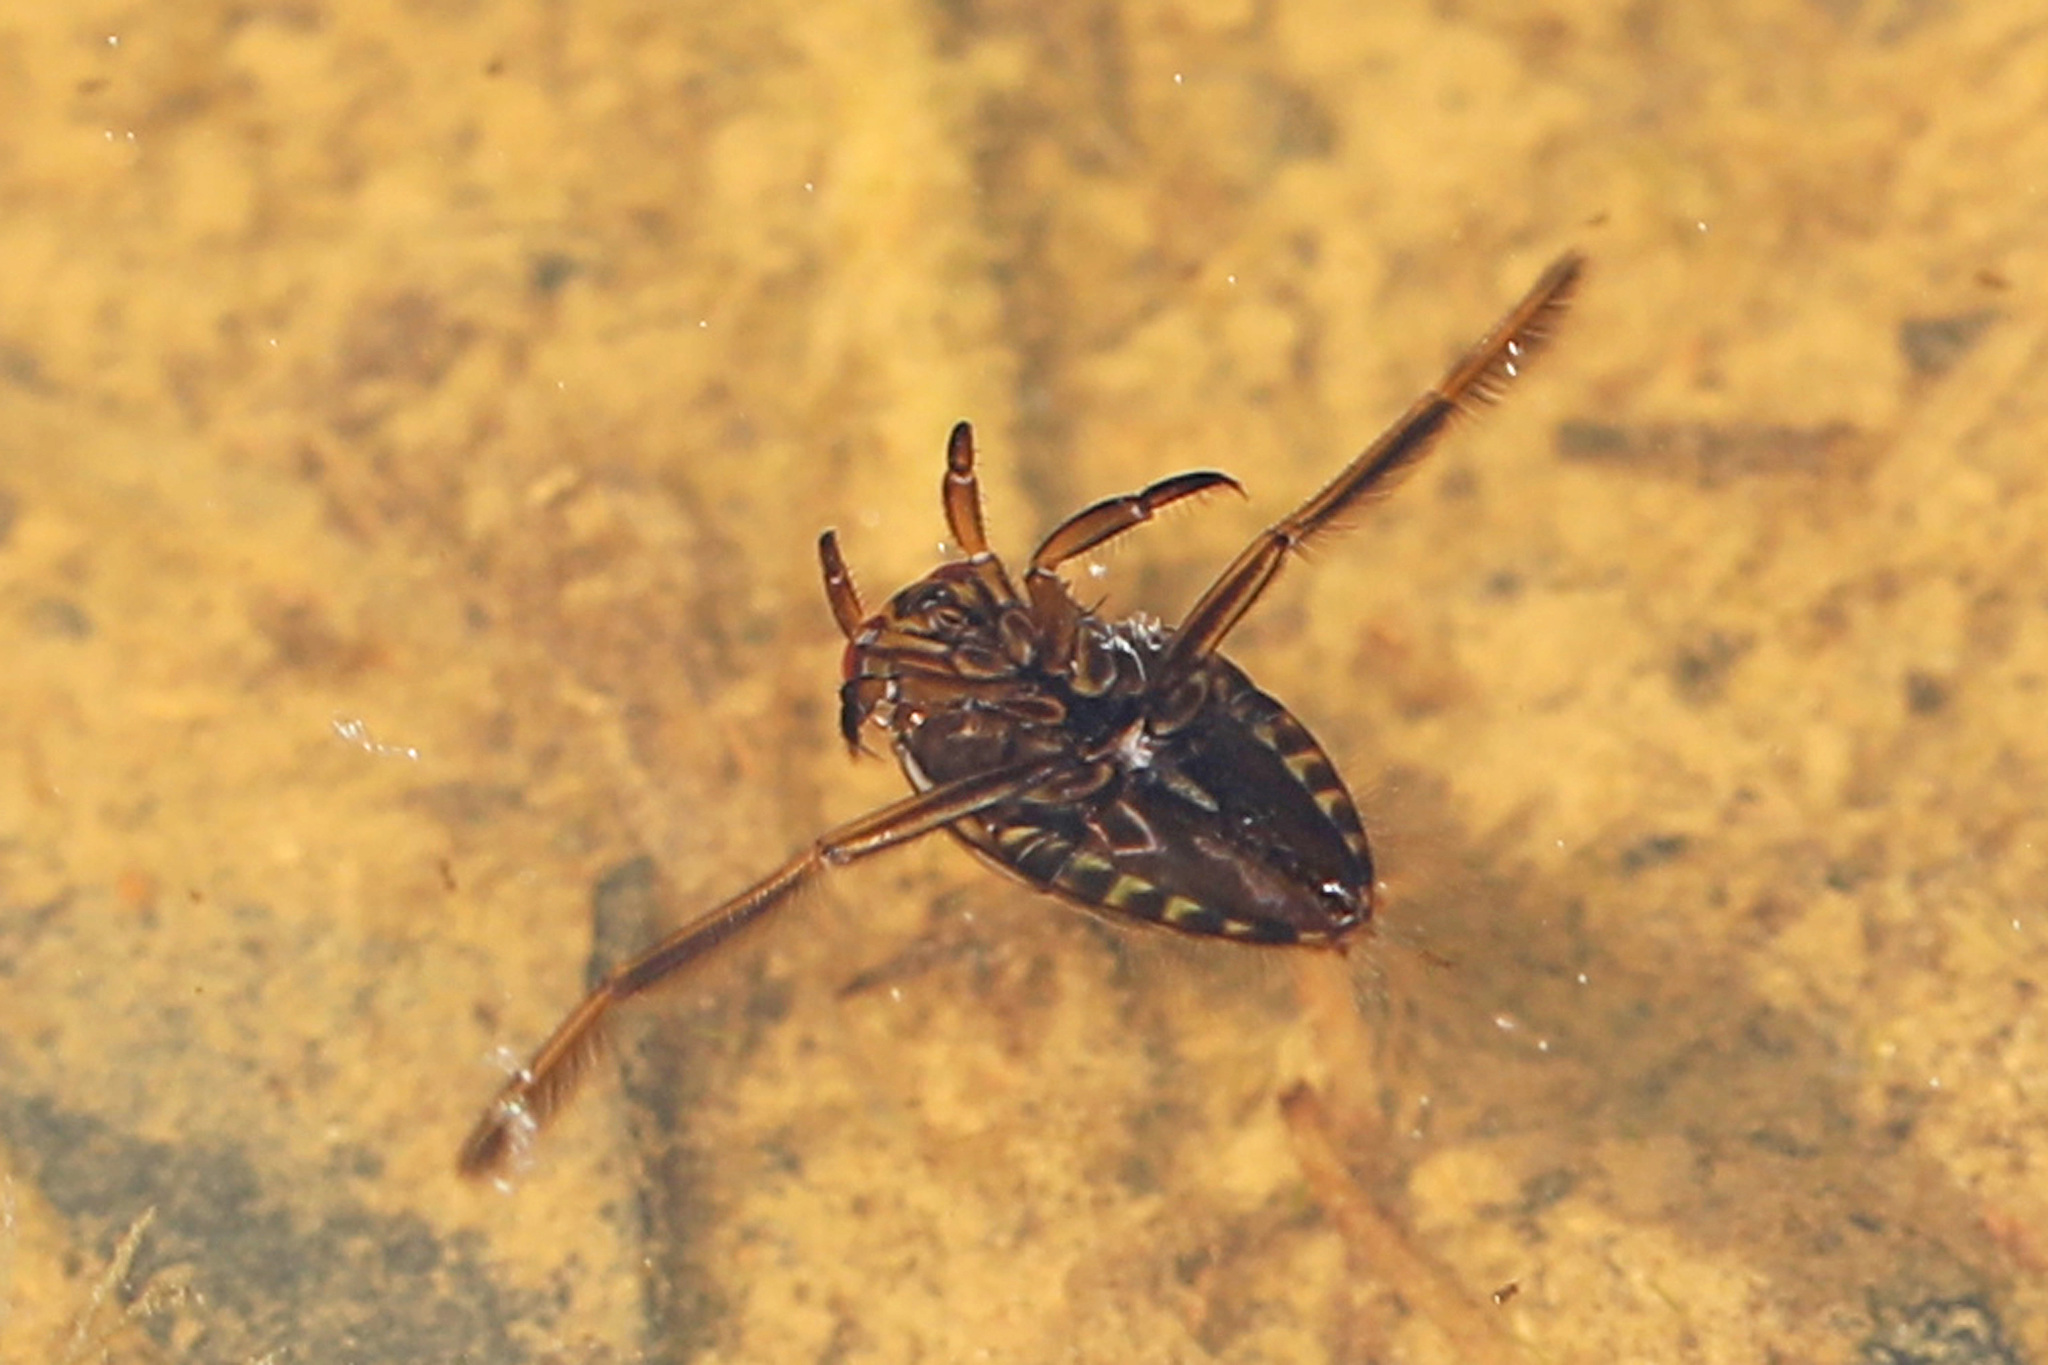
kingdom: Animalia
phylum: Arthropoda
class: Insecta
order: Hemiptera
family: Notonectidae
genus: Notonecta
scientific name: Notonecta
